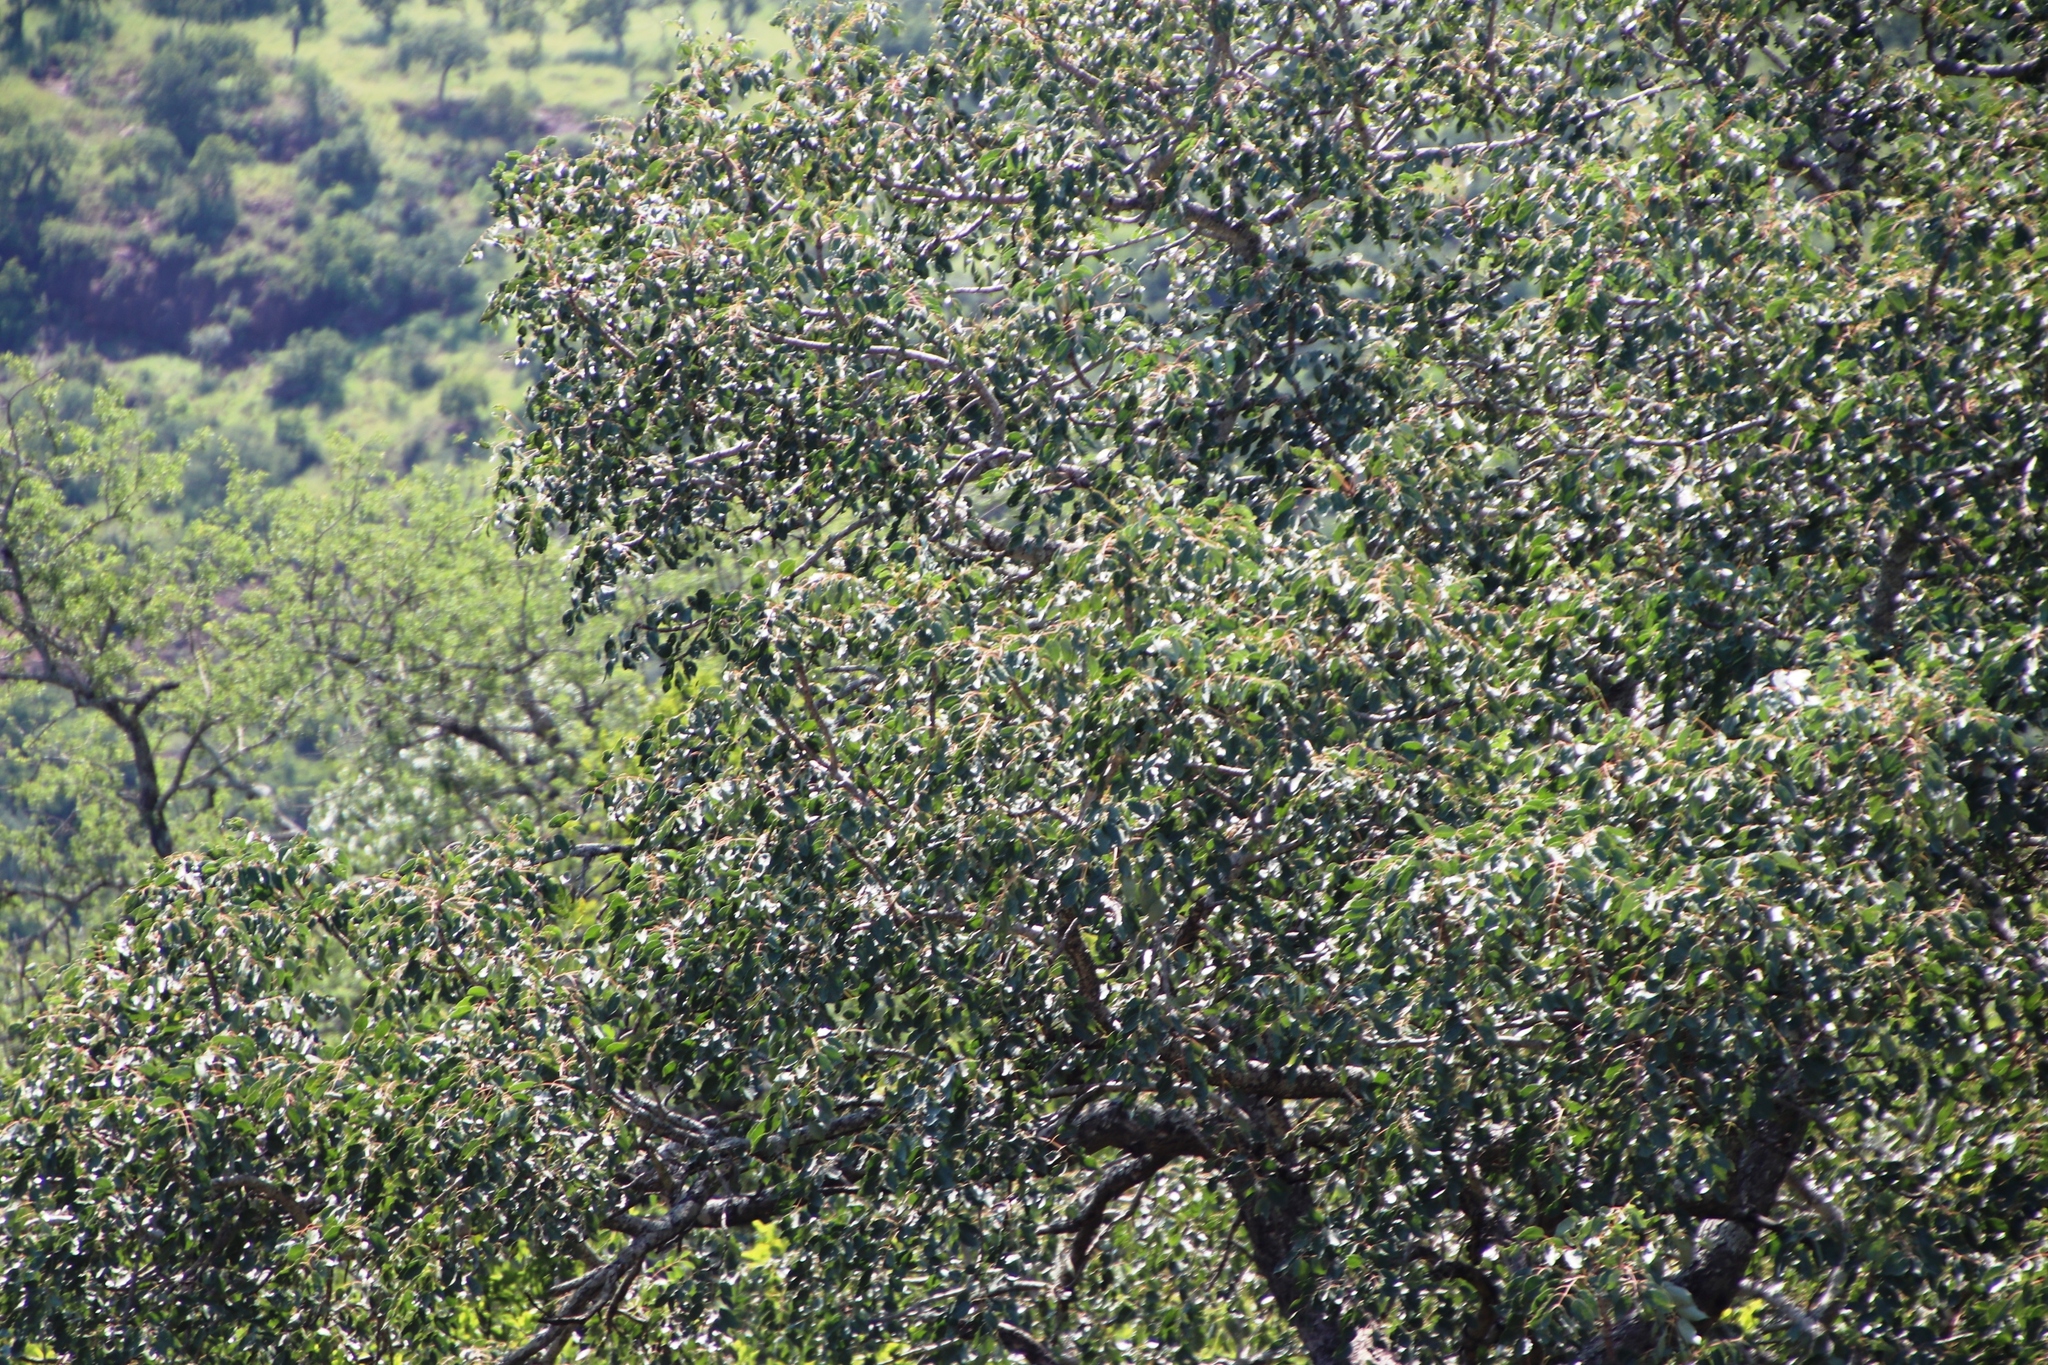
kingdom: Plantae
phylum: Tracheophyta
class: Magnoliopsida
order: Sapindales
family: Anacardiaceae
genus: Sclerocarya
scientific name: Sclerocarya birrea
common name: Marula
